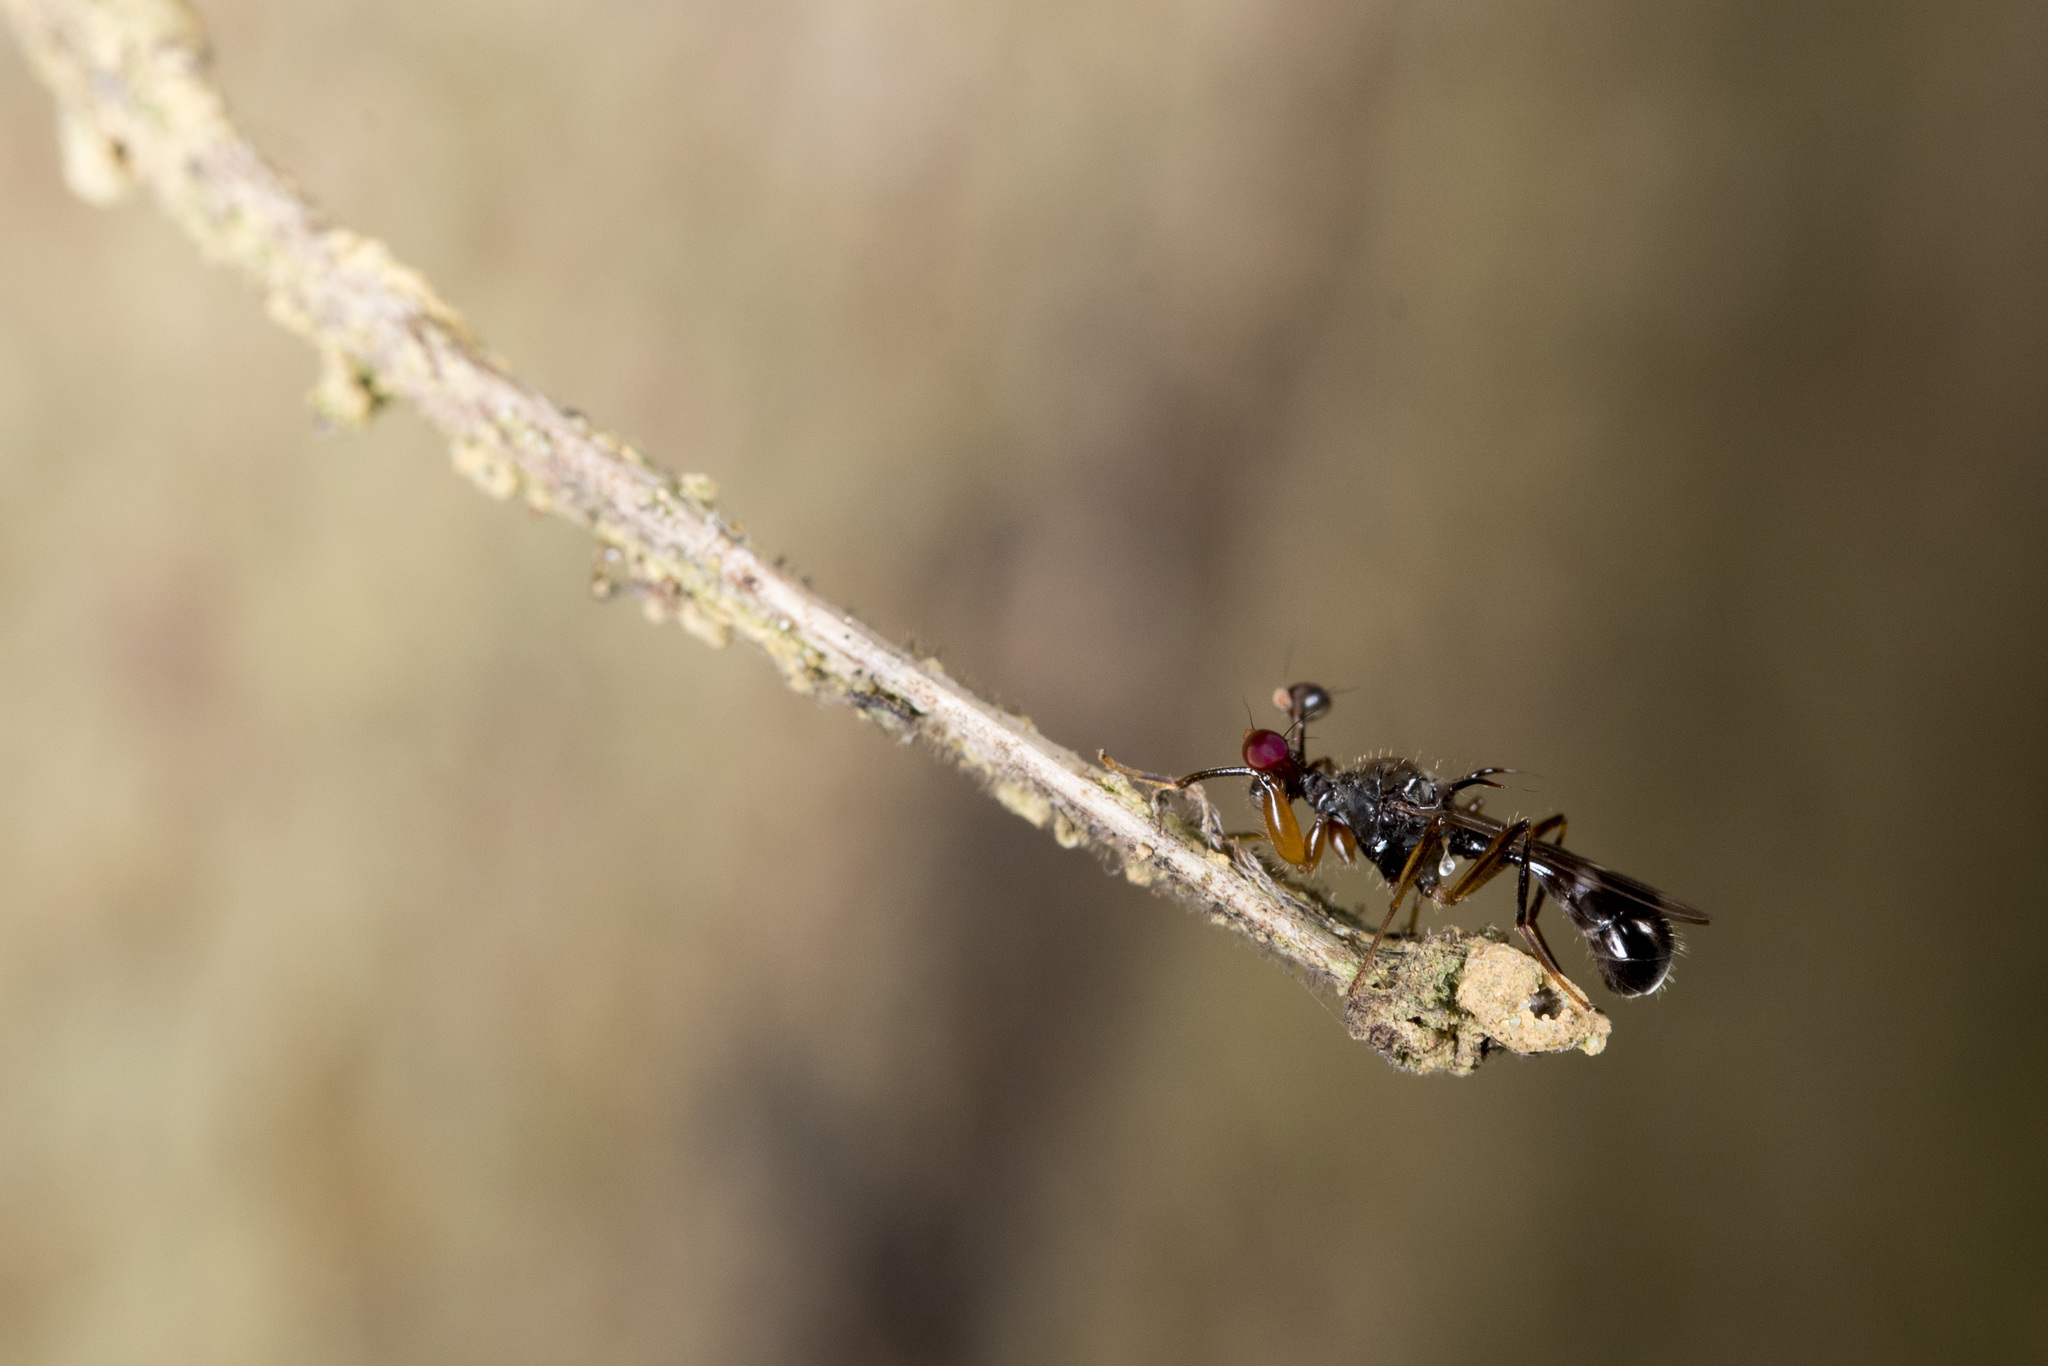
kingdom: Animalia
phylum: Arthropoda
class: Insecta
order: Diptera
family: Diopsidae
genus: Megalabops
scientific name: Megalabops
